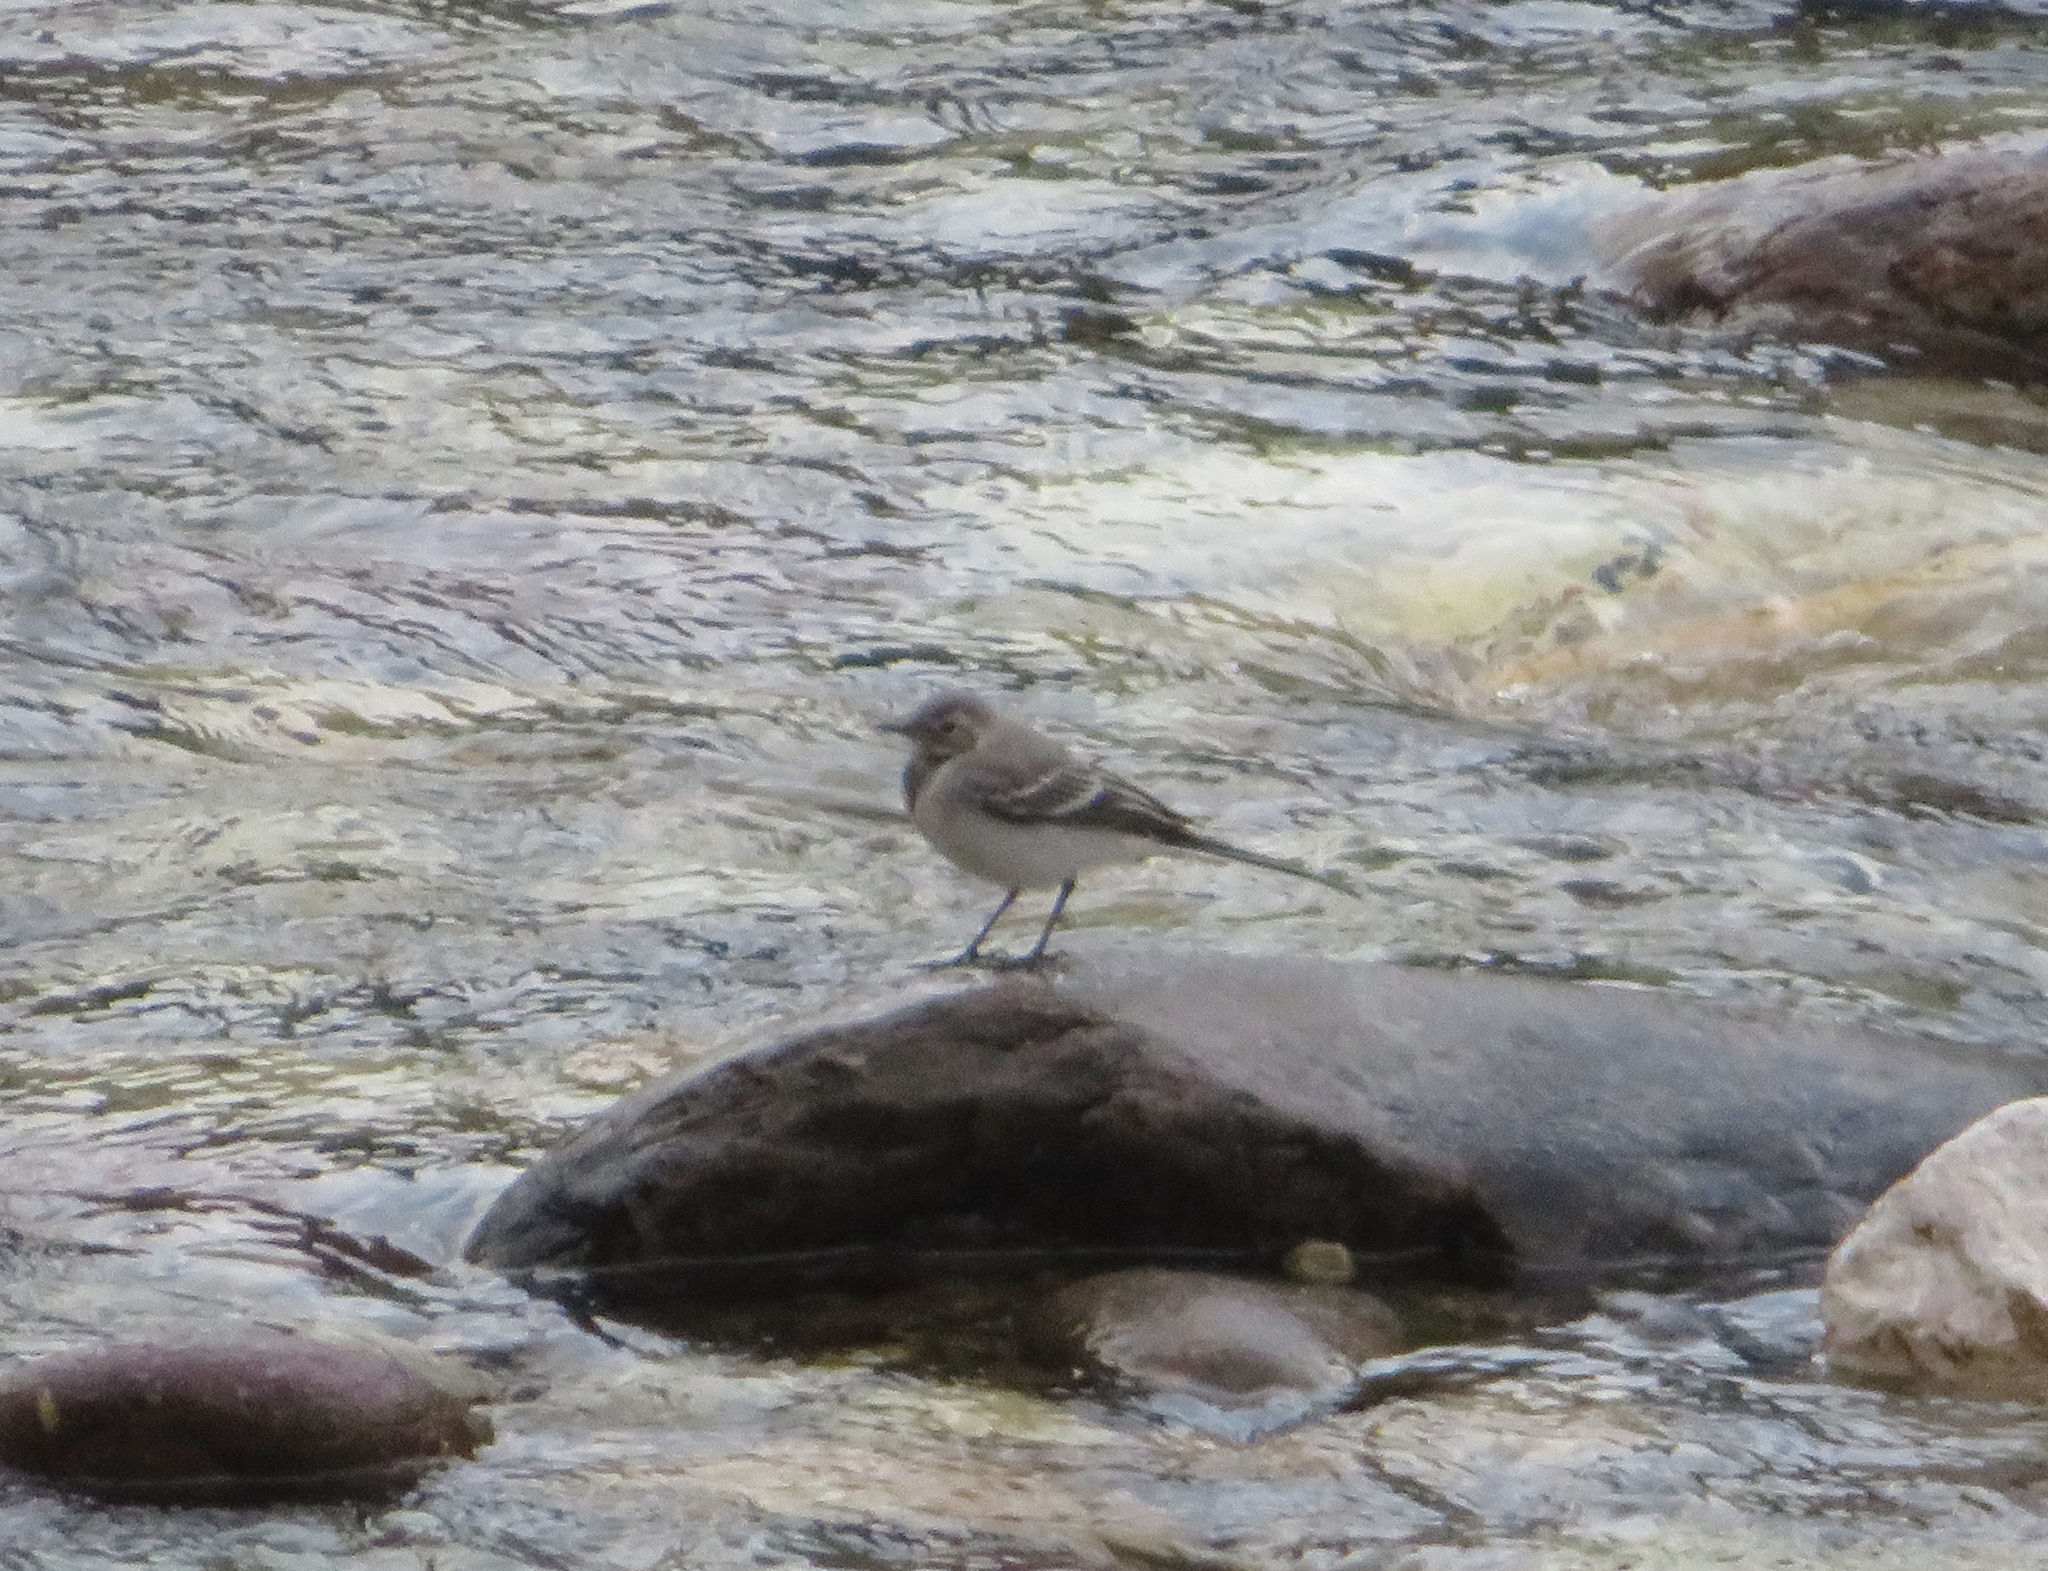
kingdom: Animalia
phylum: Chordata
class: Aves
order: Passeriformes
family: Motacillidae
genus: Motacilla
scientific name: Motacilla alba
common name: White wagtail
